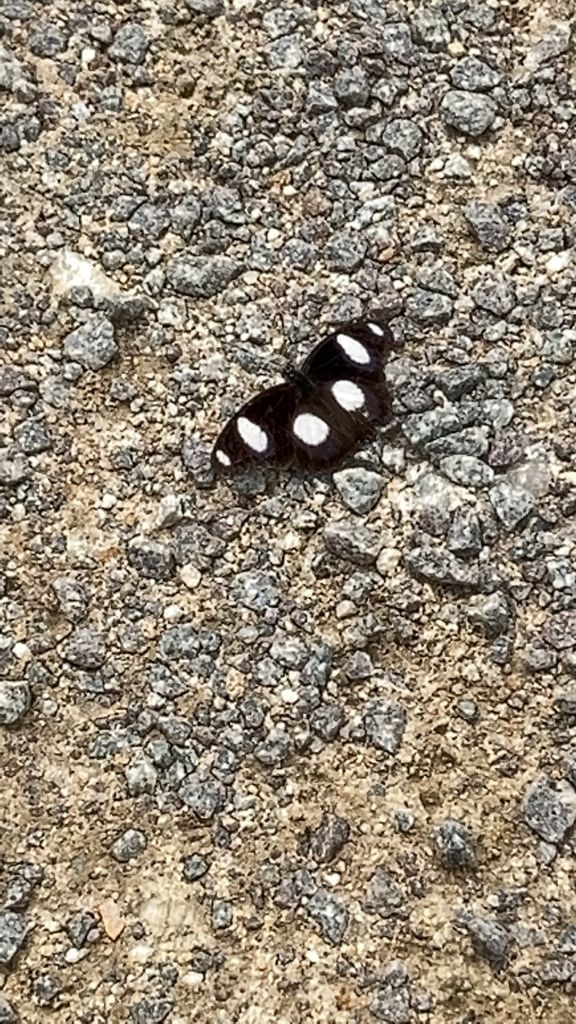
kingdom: Animalia
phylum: Arthropoda
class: Insecta
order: Lepidoptera
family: Nymphalidae
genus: Hypolimnas
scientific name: Hypolimnas misippus
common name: False plain tiger
